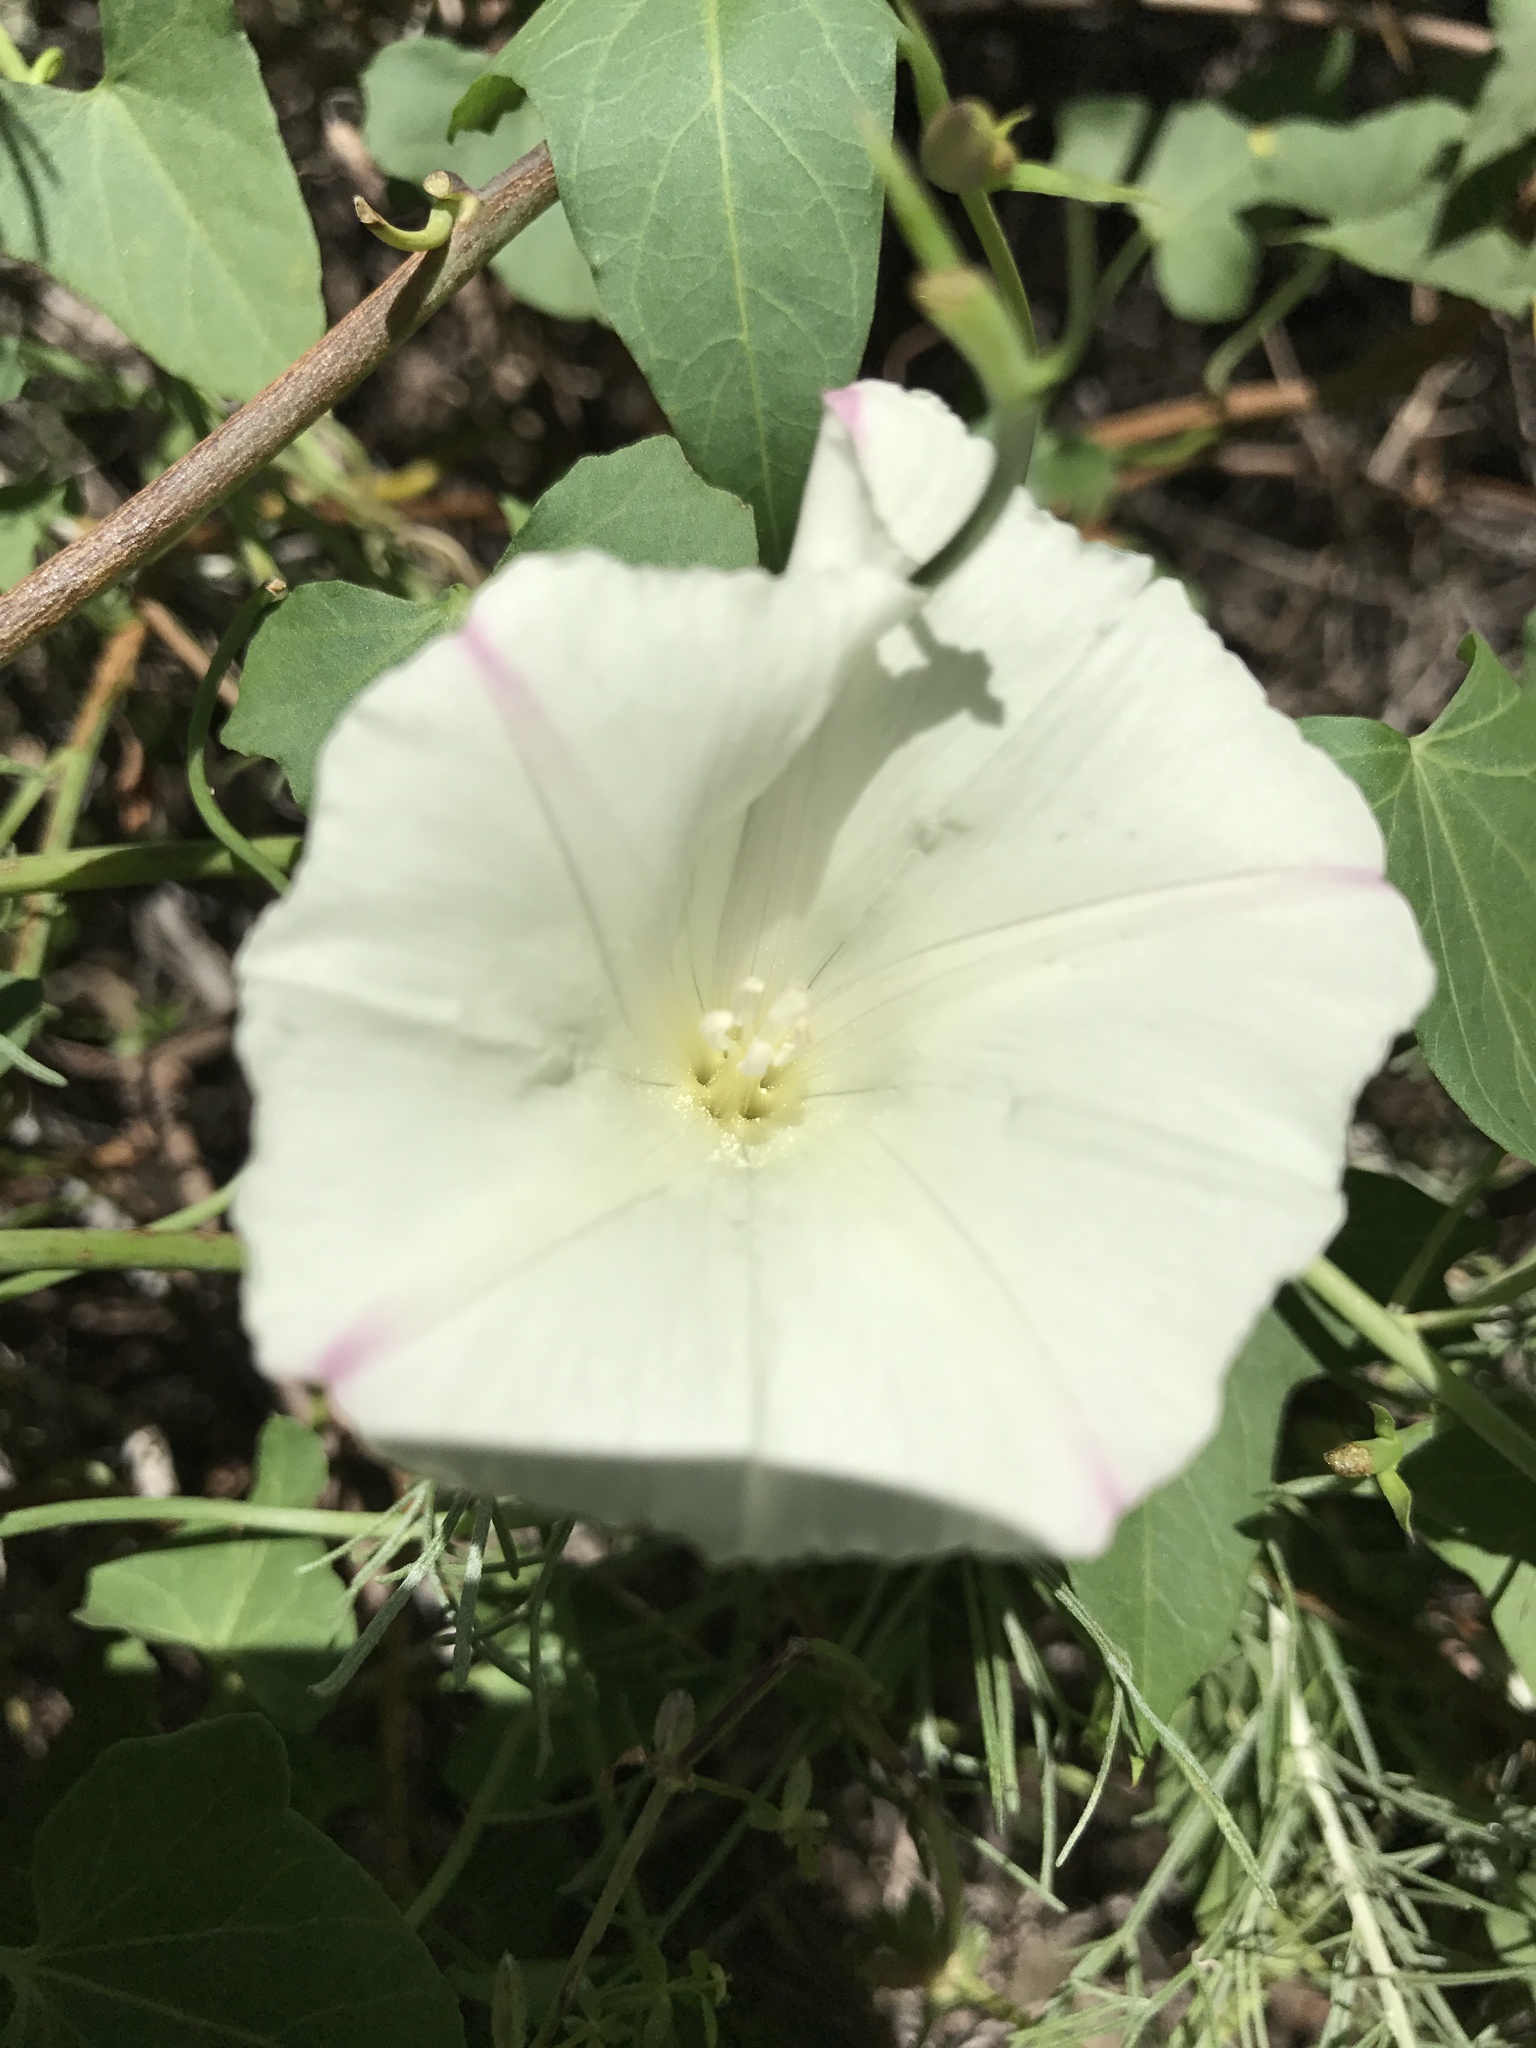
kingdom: Plantae
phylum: Tracheophyta
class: Magnoliopsida
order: Solanales
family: Convolvulaceae
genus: Calystegia
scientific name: Calystegia purpurata
